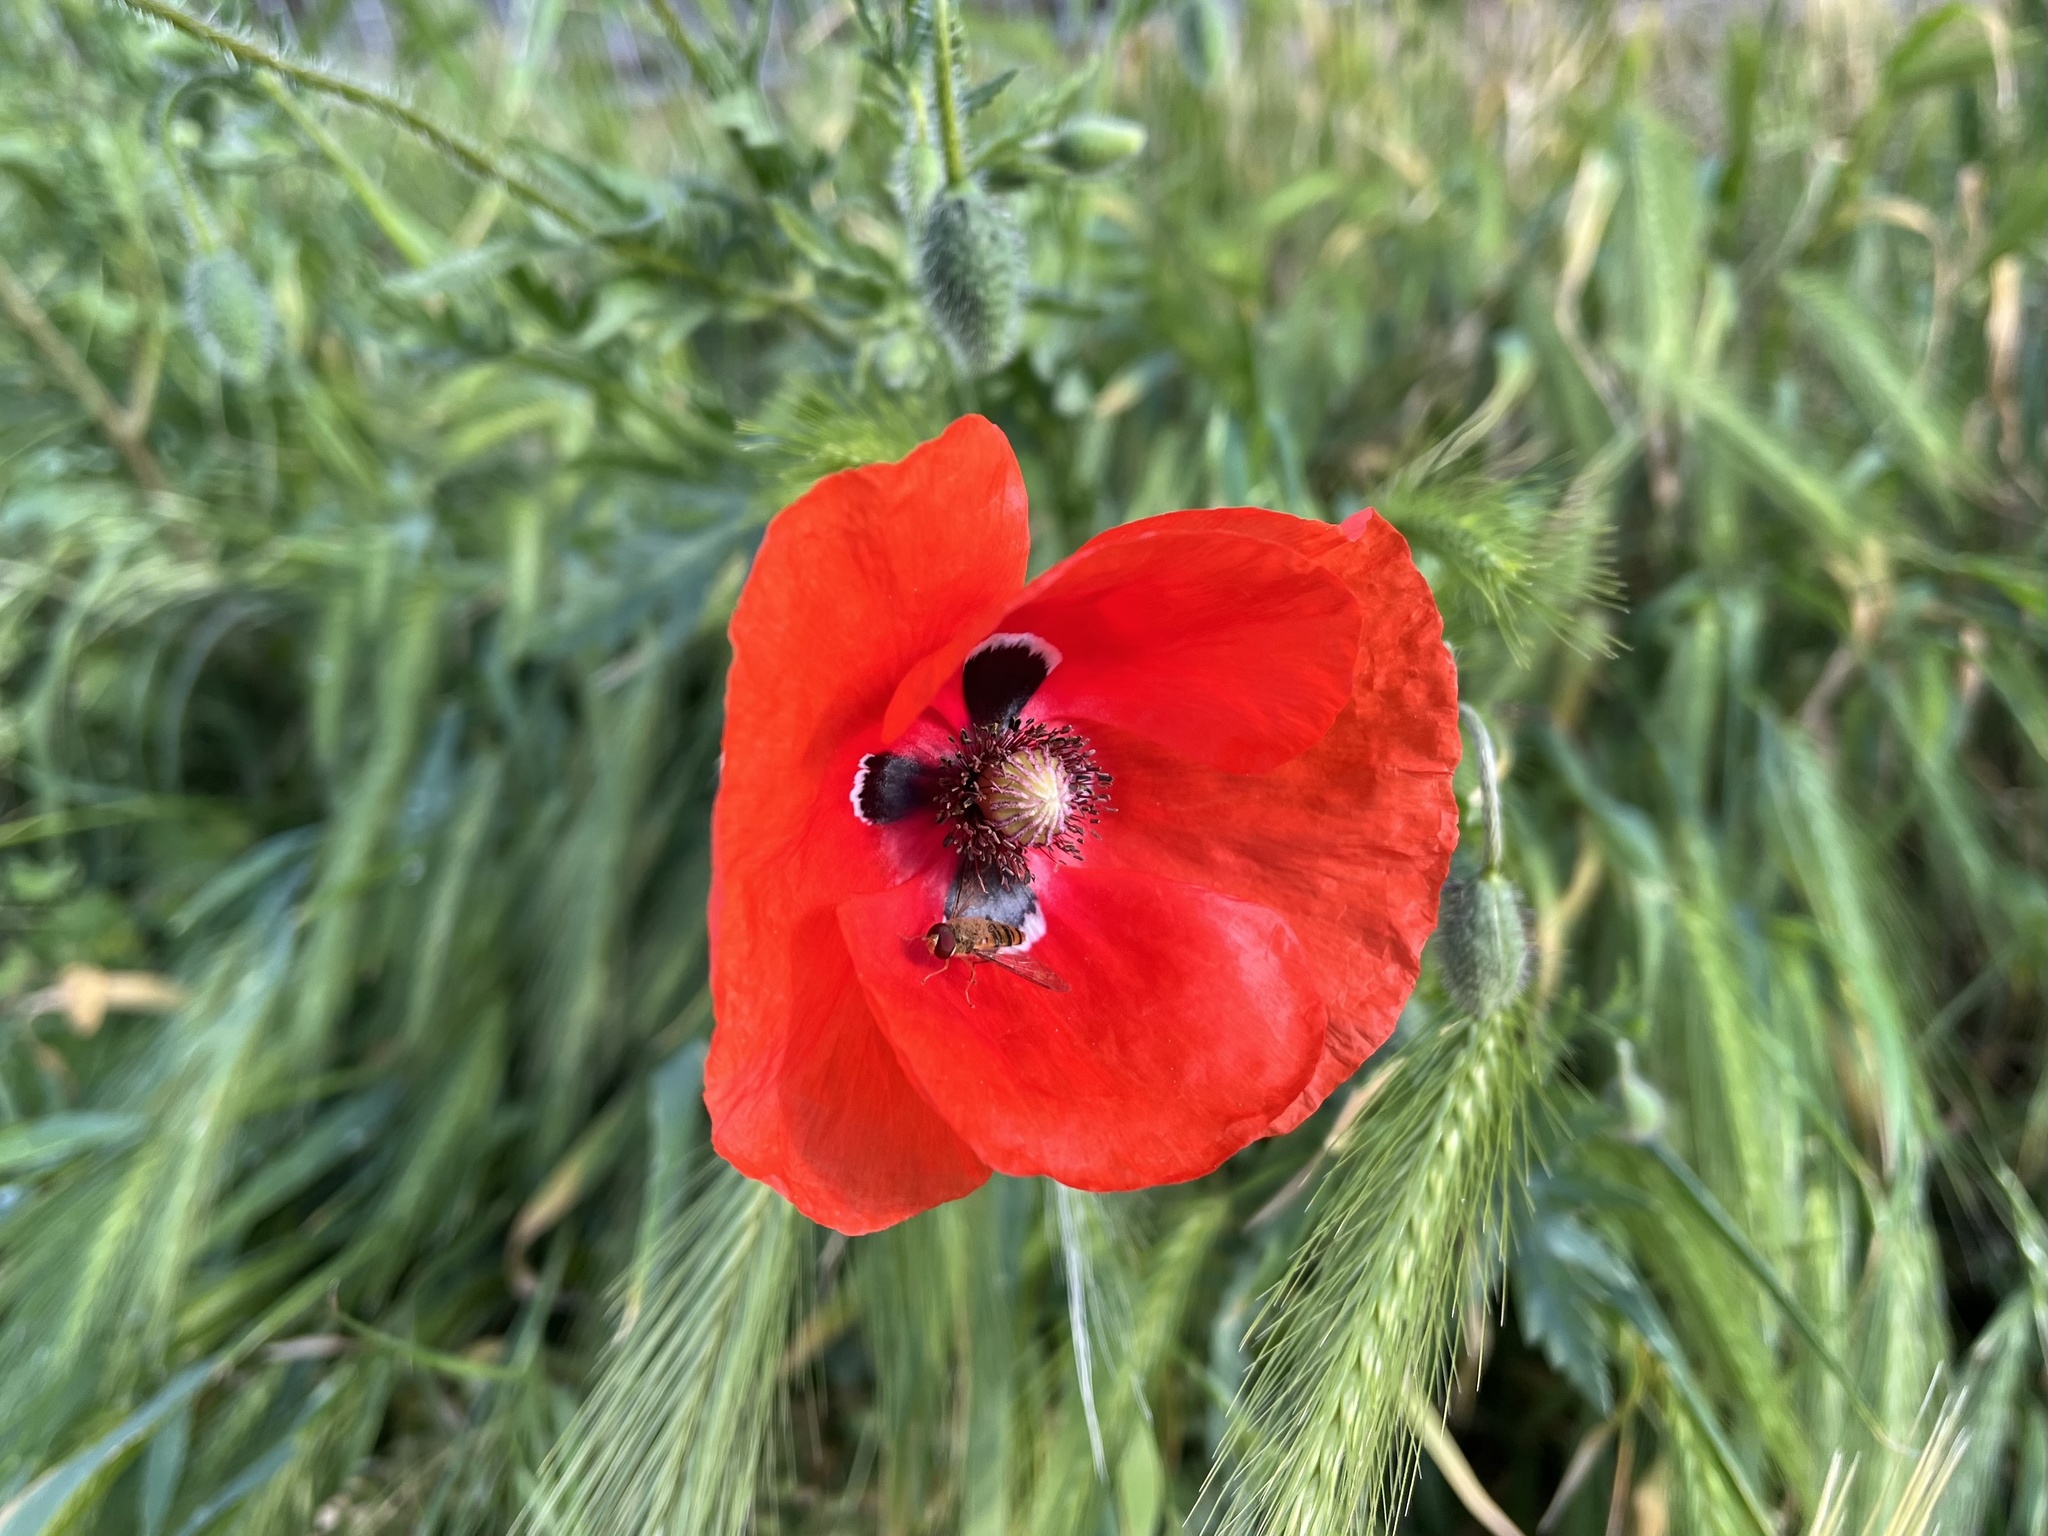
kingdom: Plantae
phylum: Tracheophyta
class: Magnoliopsida
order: Ranunculales
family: Papaveraceae
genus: Papaver
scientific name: Papaver rhoeas
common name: Corn poppy
